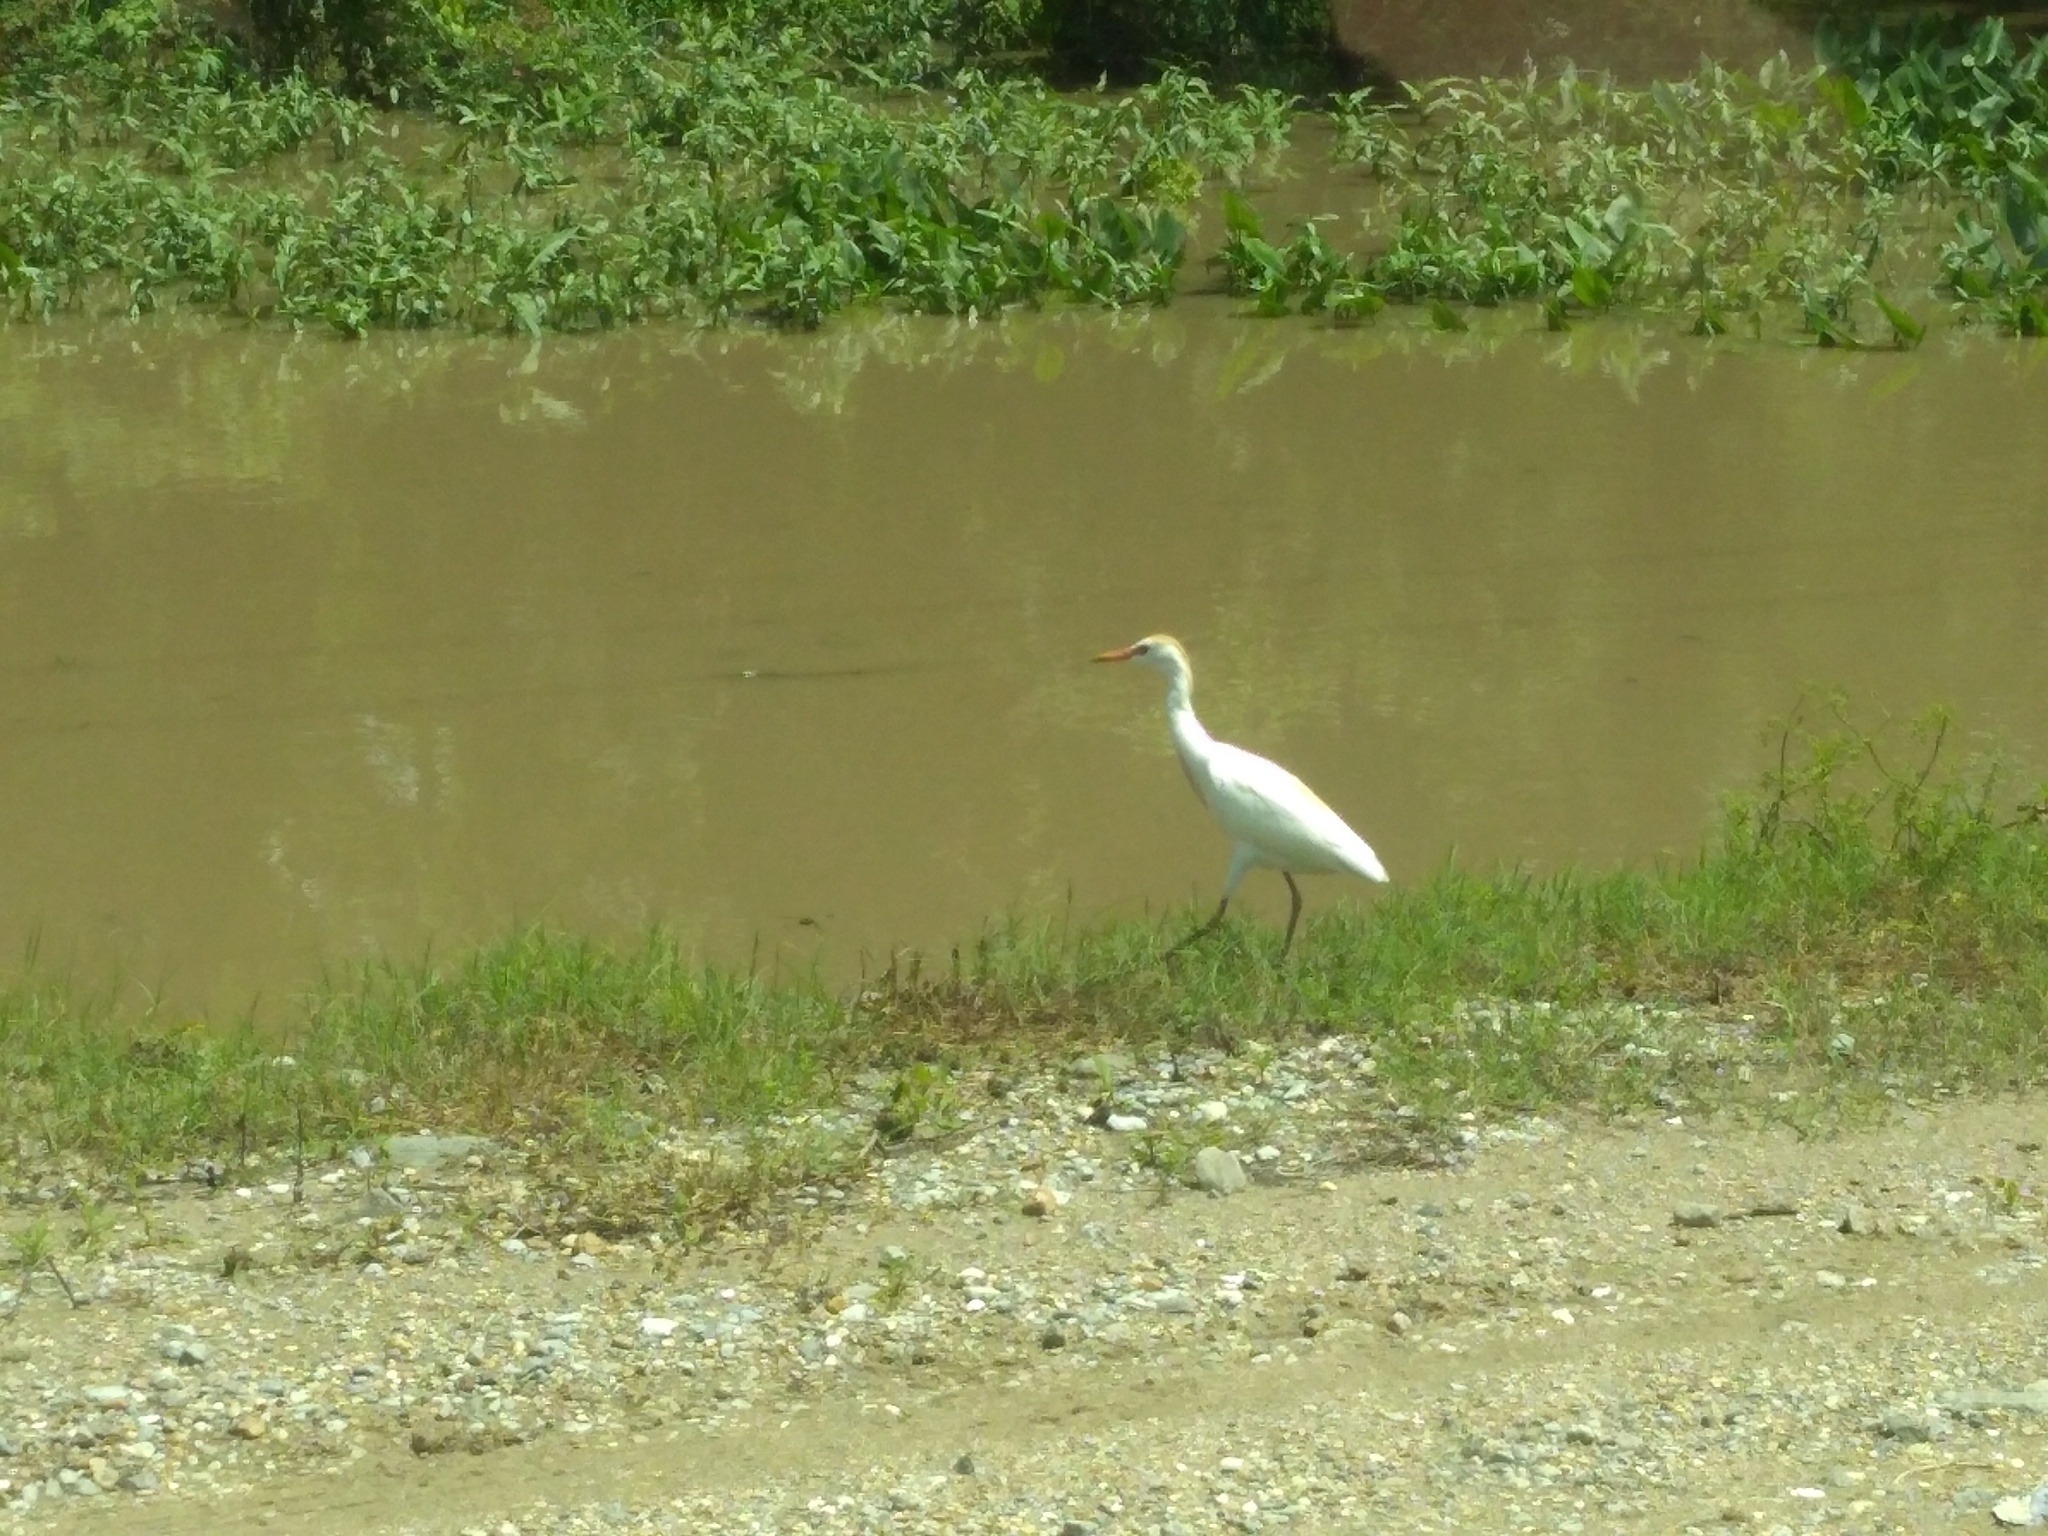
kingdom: Animalia
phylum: Chordata
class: Aves
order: Pelecaniformes
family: Ardeidae
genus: Bubulcus
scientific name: Bubulcus ibis
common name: Cattle egret
